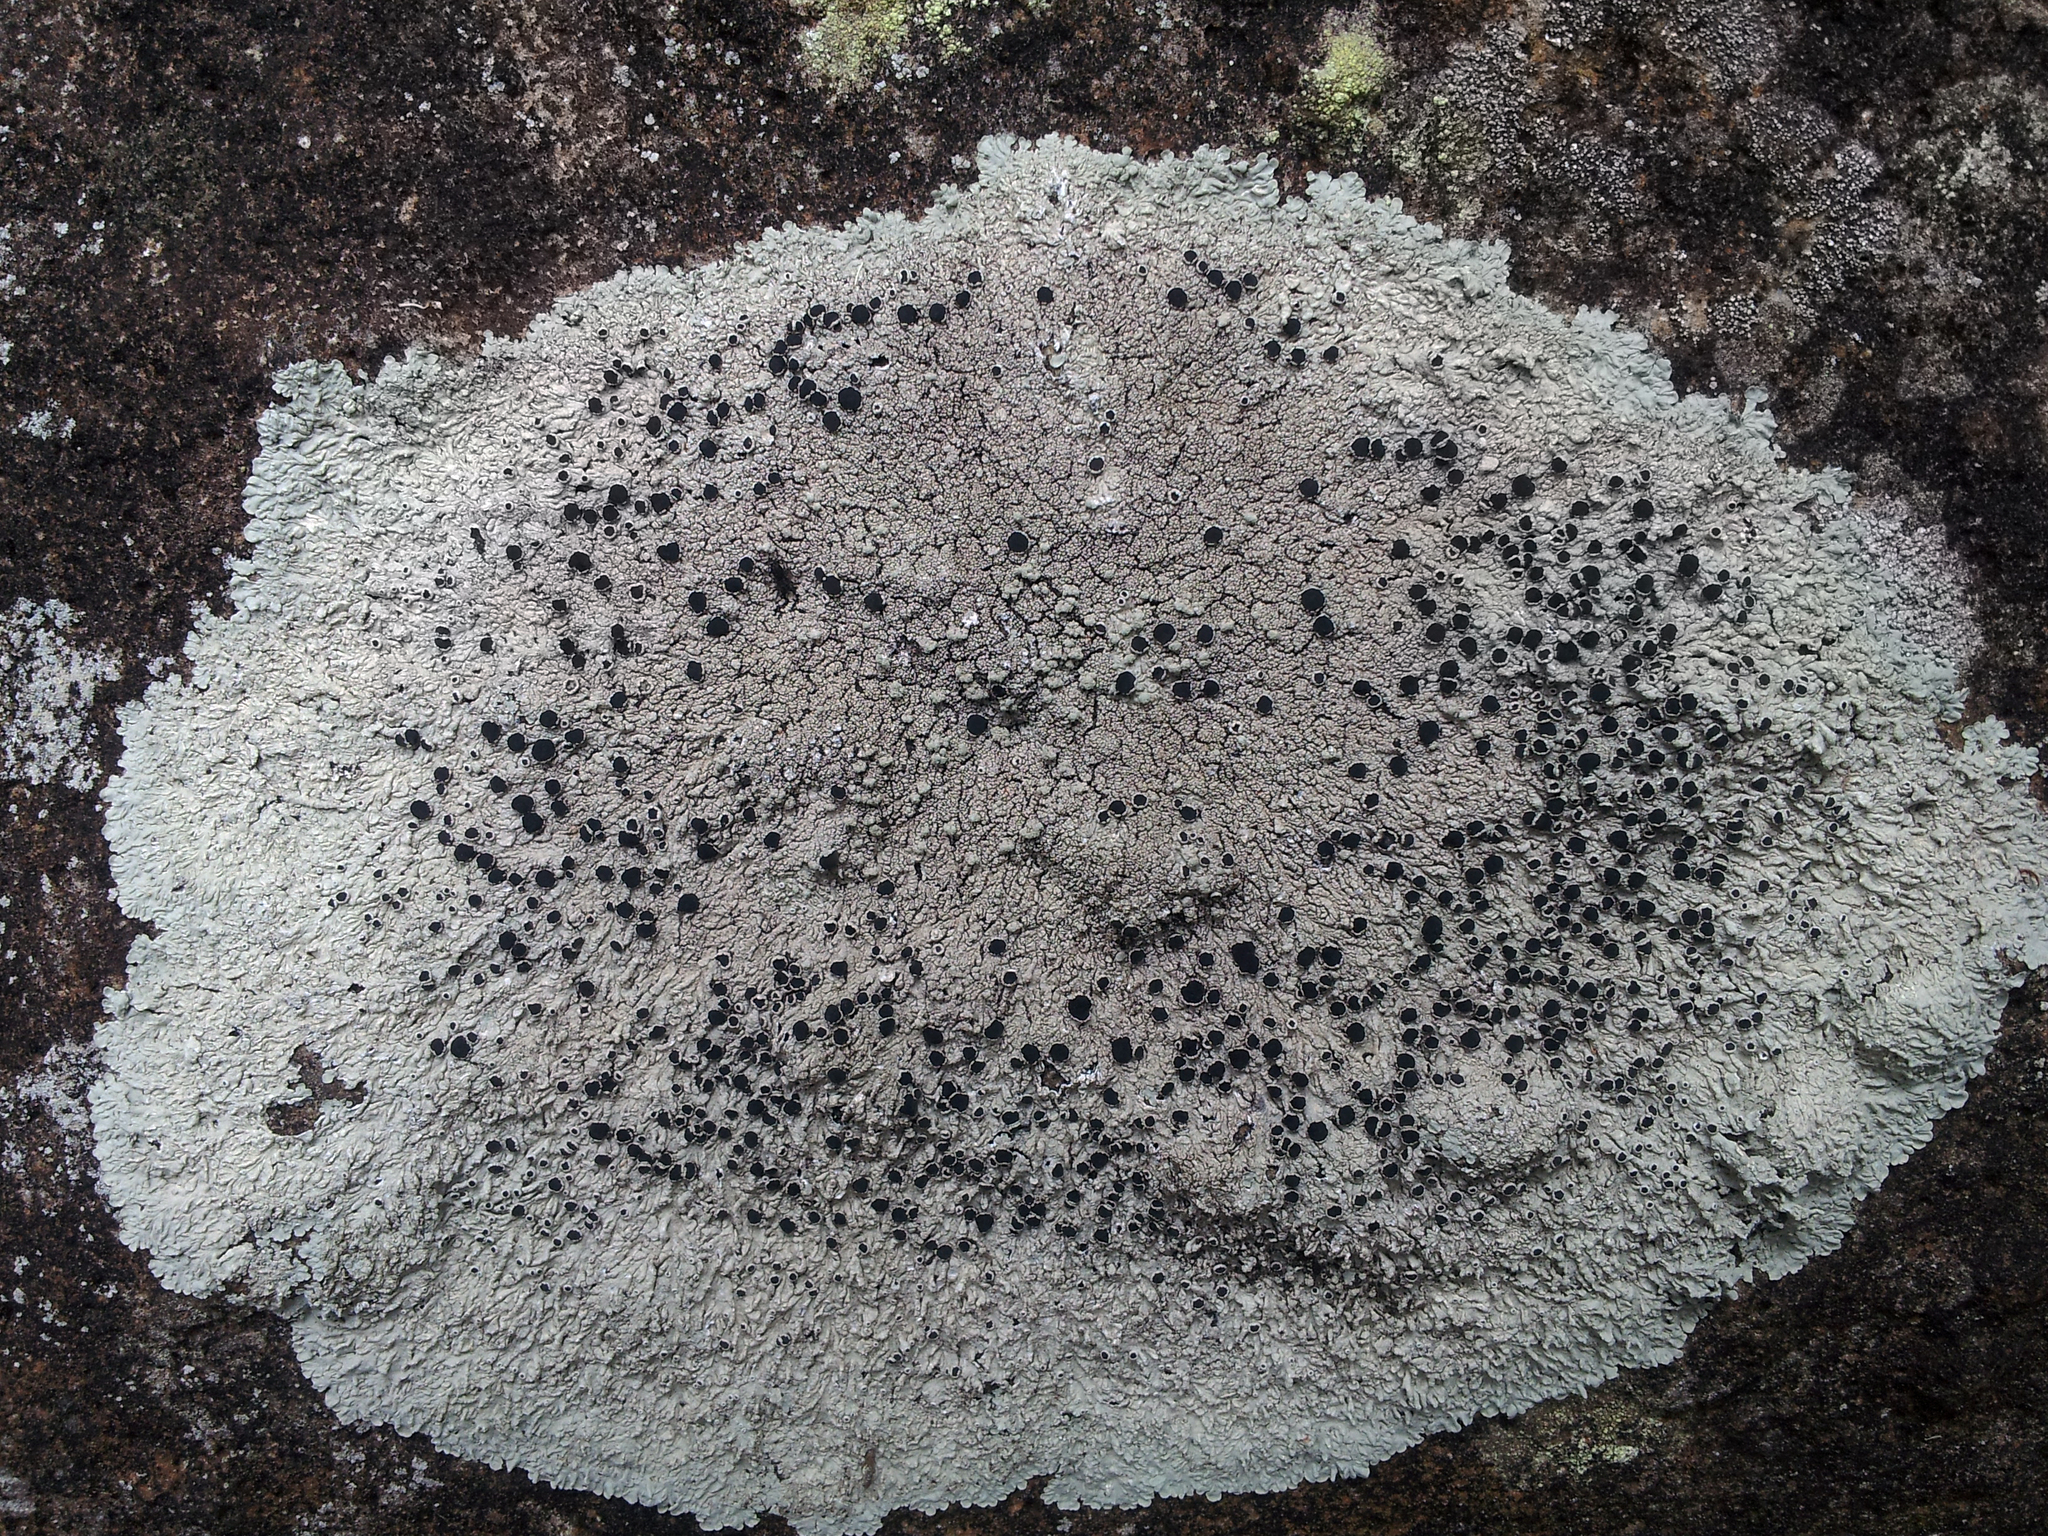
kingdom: Fungi
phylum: Ascomycota
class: Lecanoromycetes
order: Caliciales
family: Caliciaceae
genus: Dirinaria
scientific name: Dirinaria applanata
